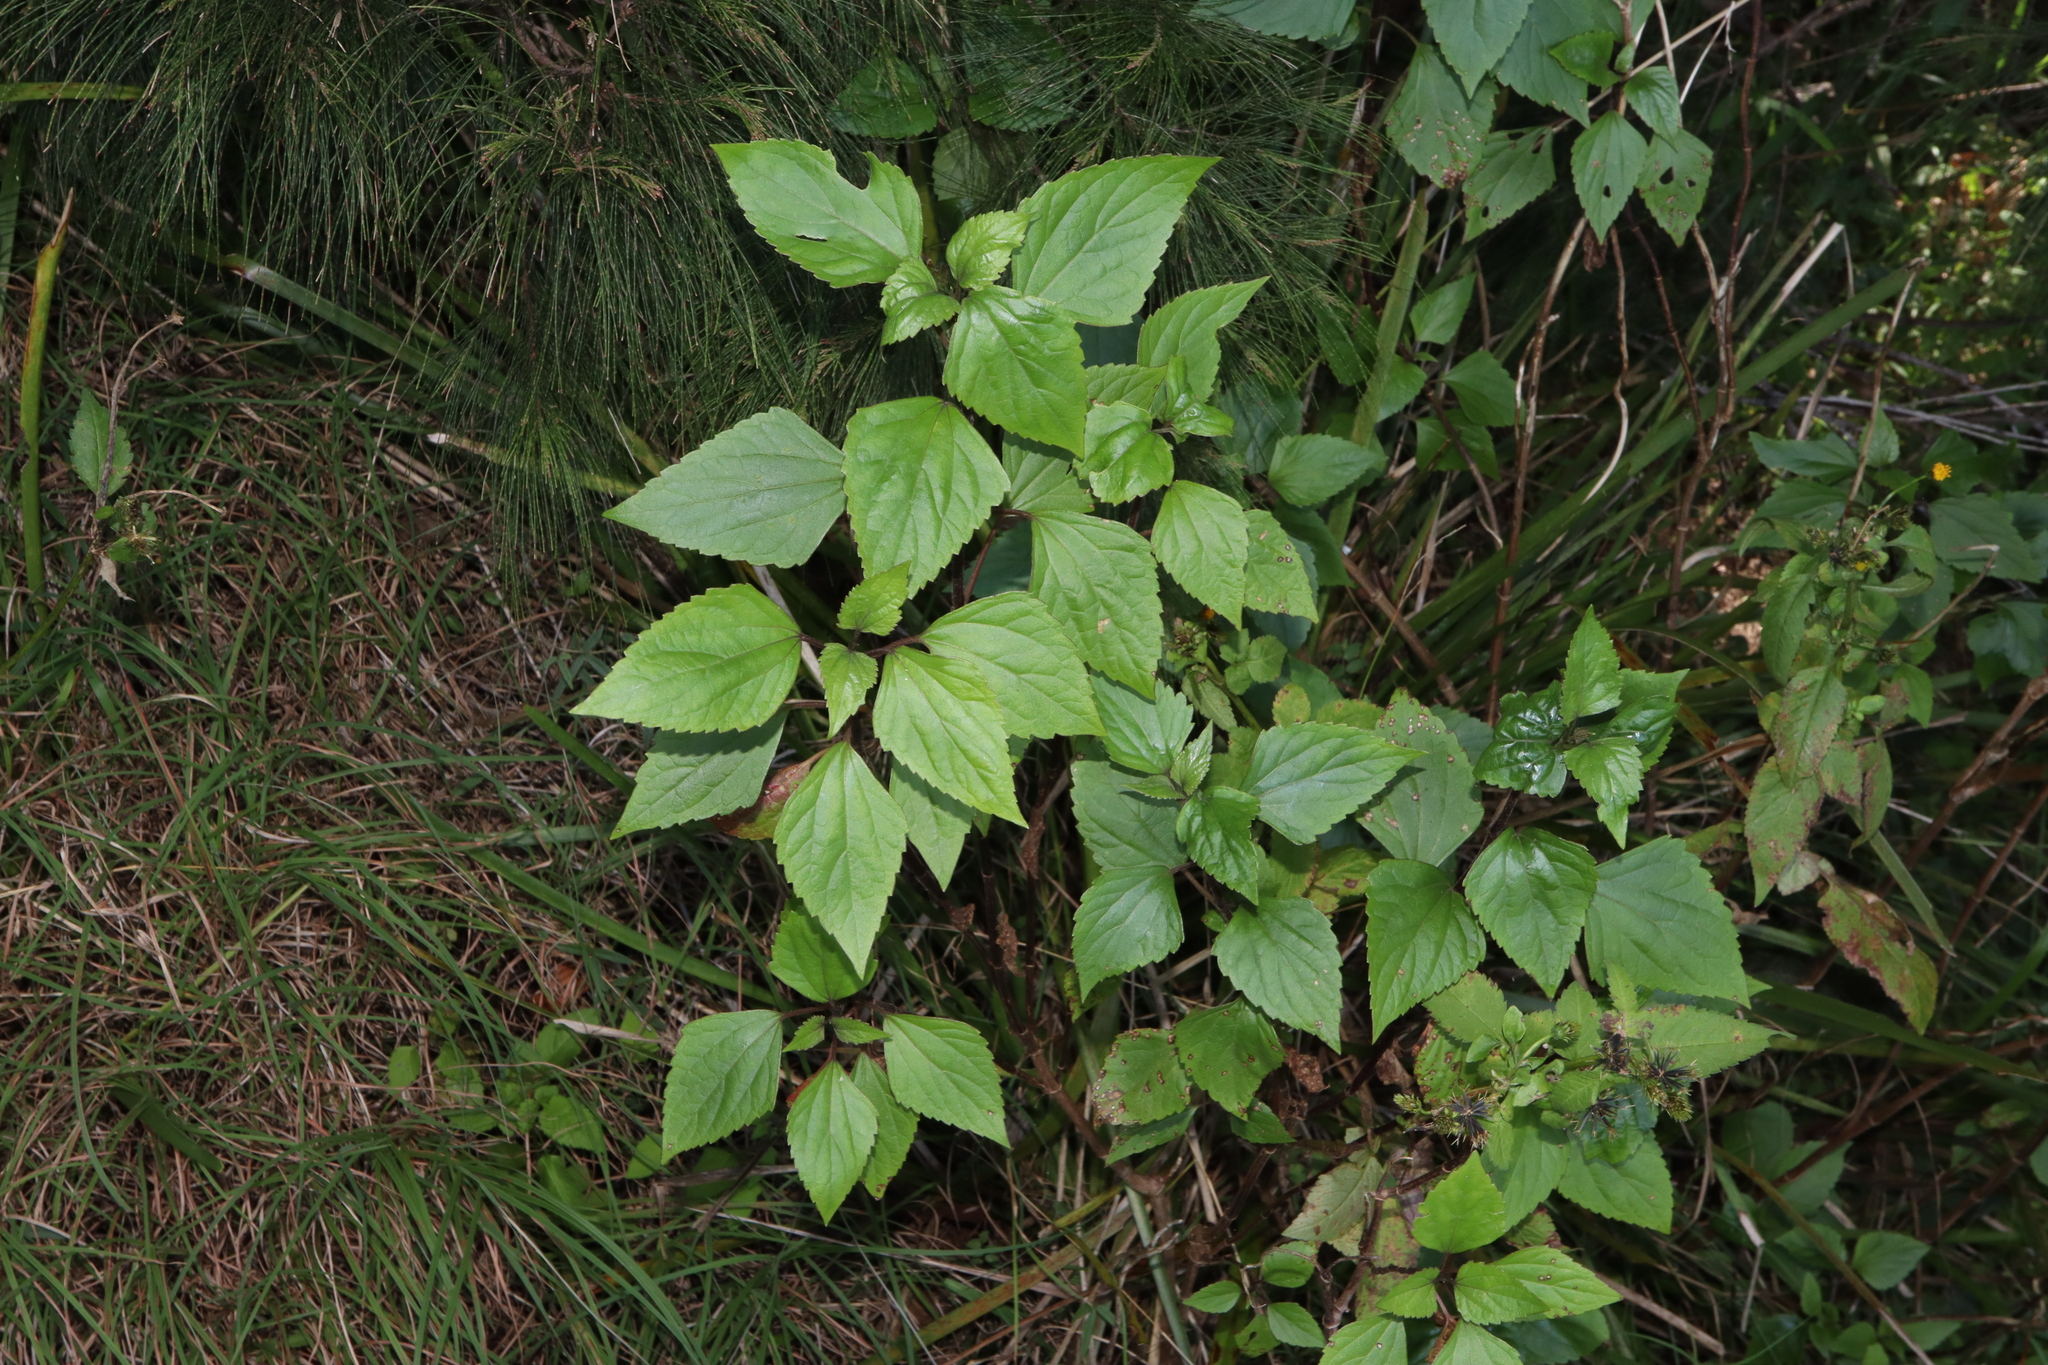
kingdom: Plantae
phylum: Tracheophyta
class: Magnoliopsida
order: Asterales
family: Asteraceae
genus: Ageratina
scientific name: Ageratina adenophora
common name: Sticky snakeroot
